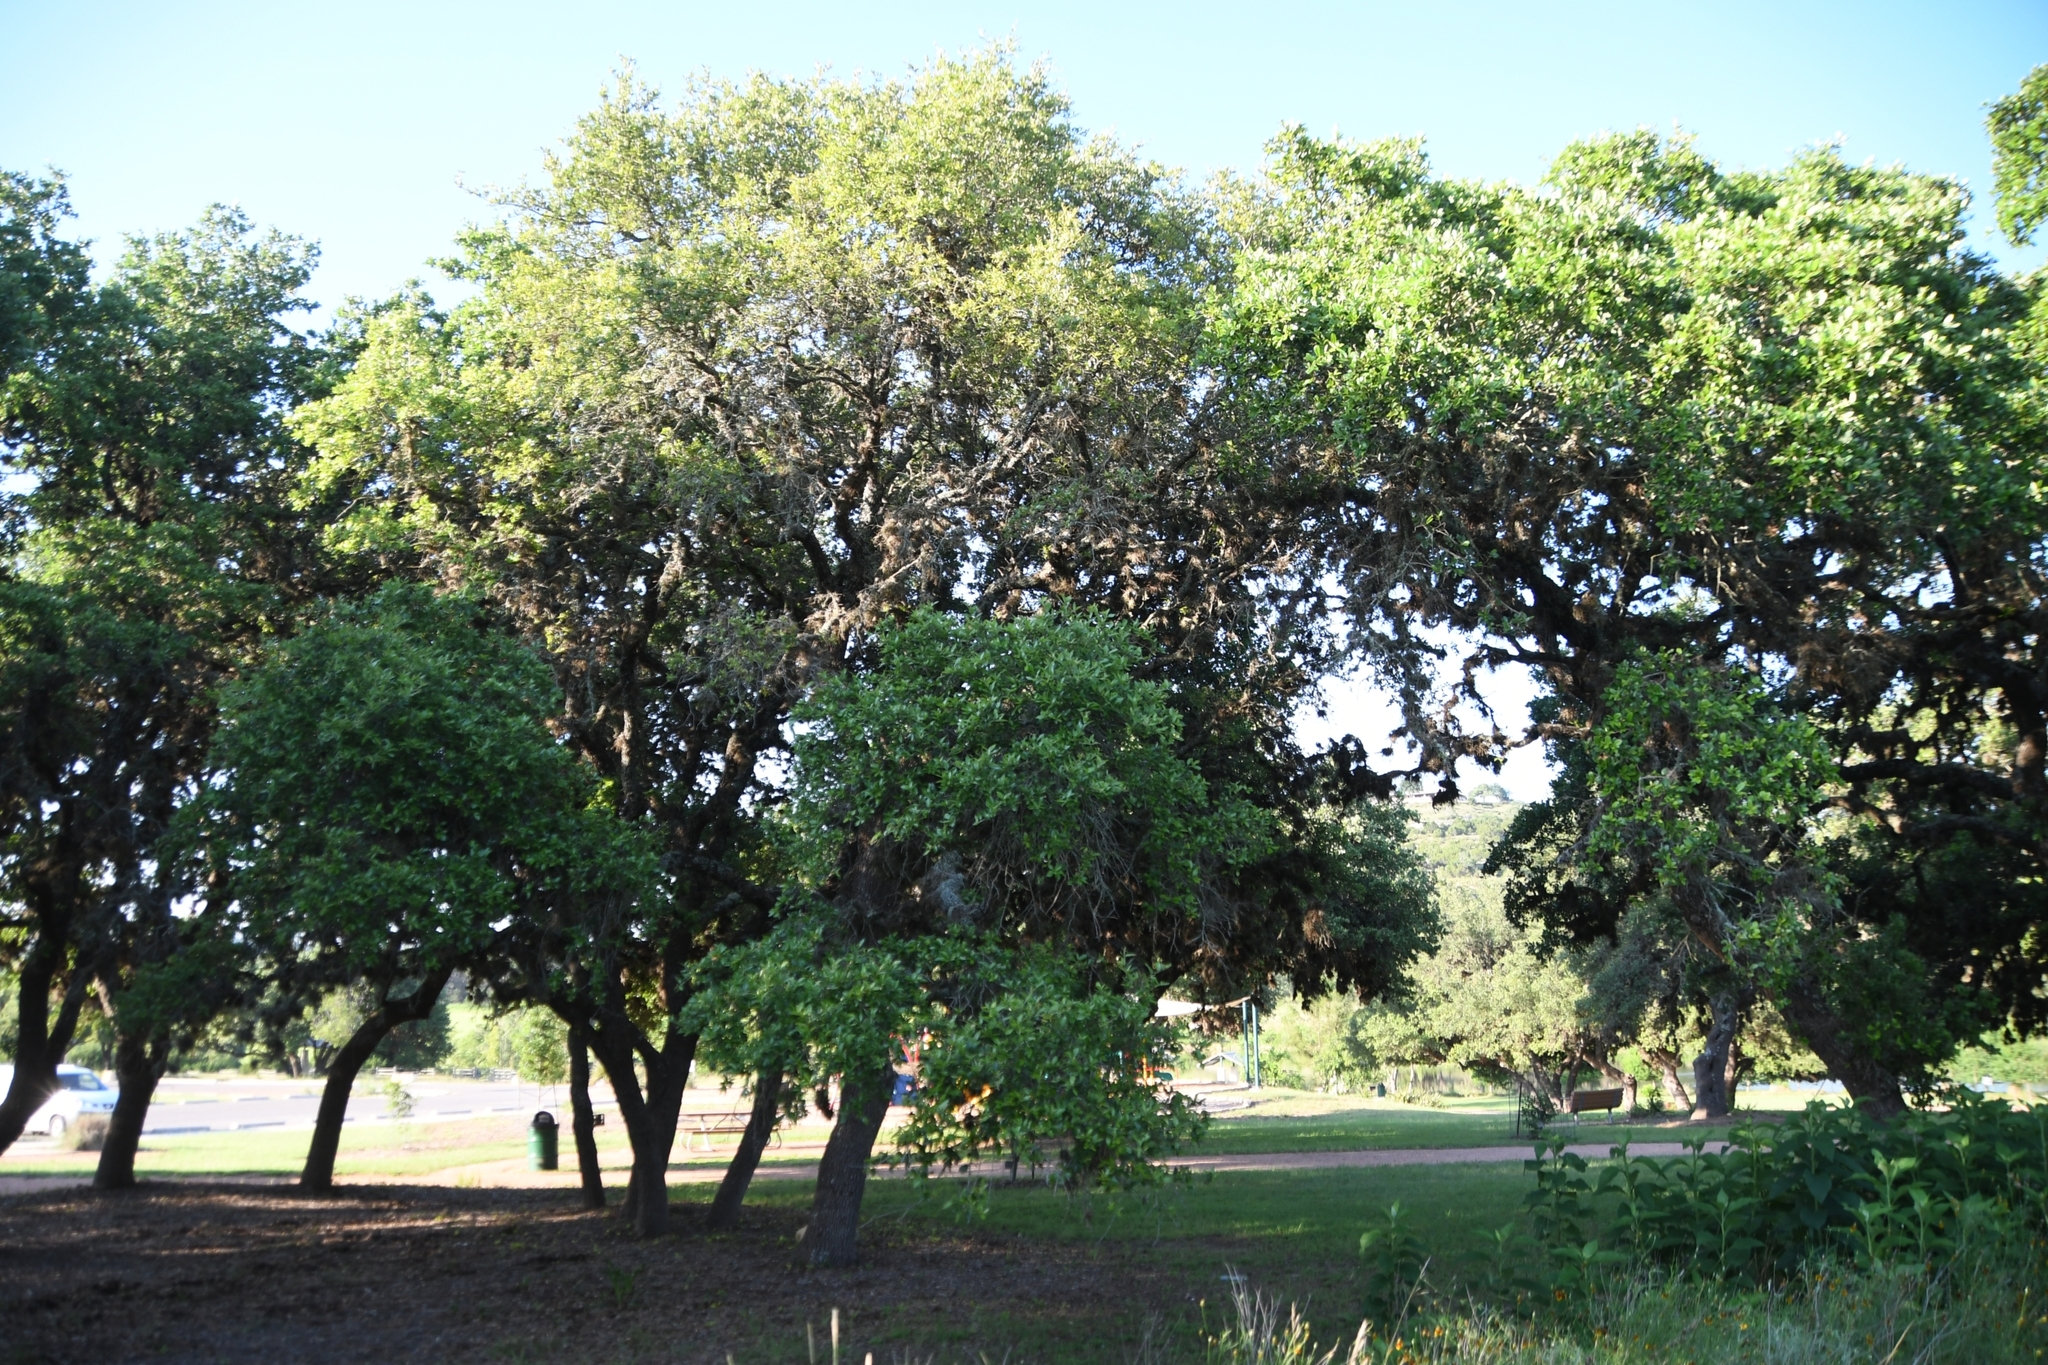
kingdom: Plantae
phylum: Tracheophyta
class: Magnoliopsida
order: Fagales
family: Fagaceae
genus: Quercus
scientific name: Quercus fusiformis
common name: Texas live oak
